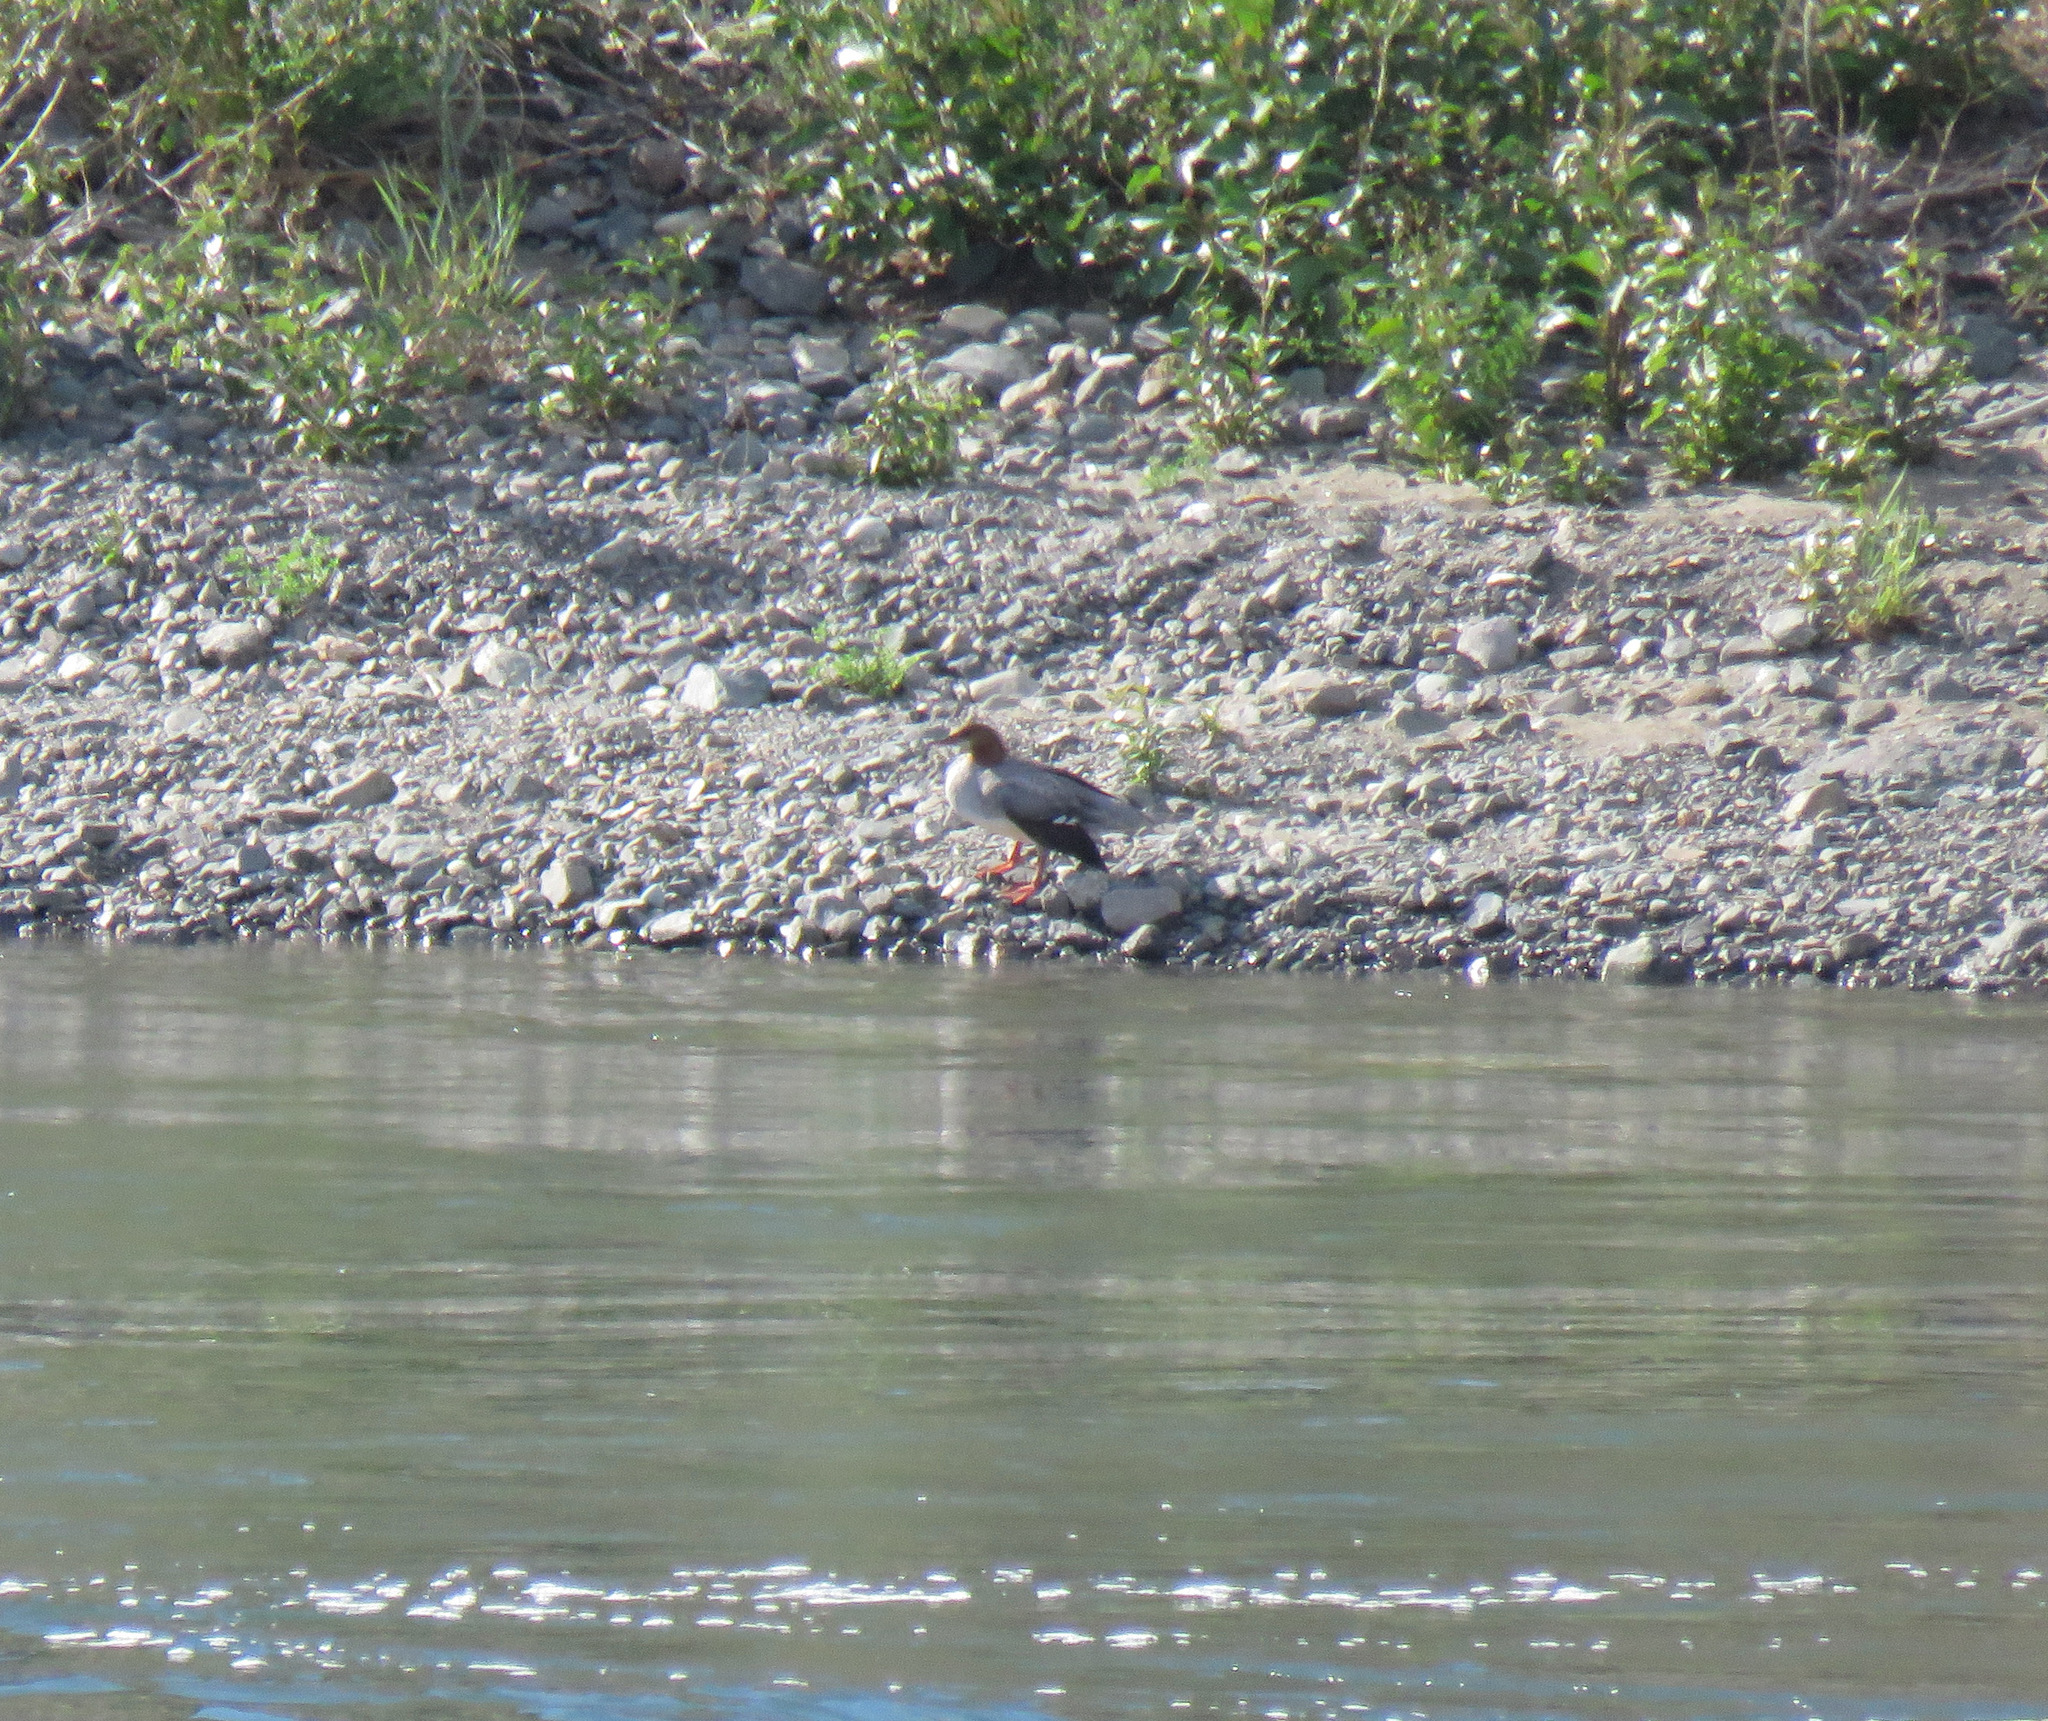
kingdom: Animalia
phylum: Chordata
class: Aves
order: Anseriformes
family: Anatidae
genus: Mergus
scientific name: Mergus merganser
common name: Common merganser
